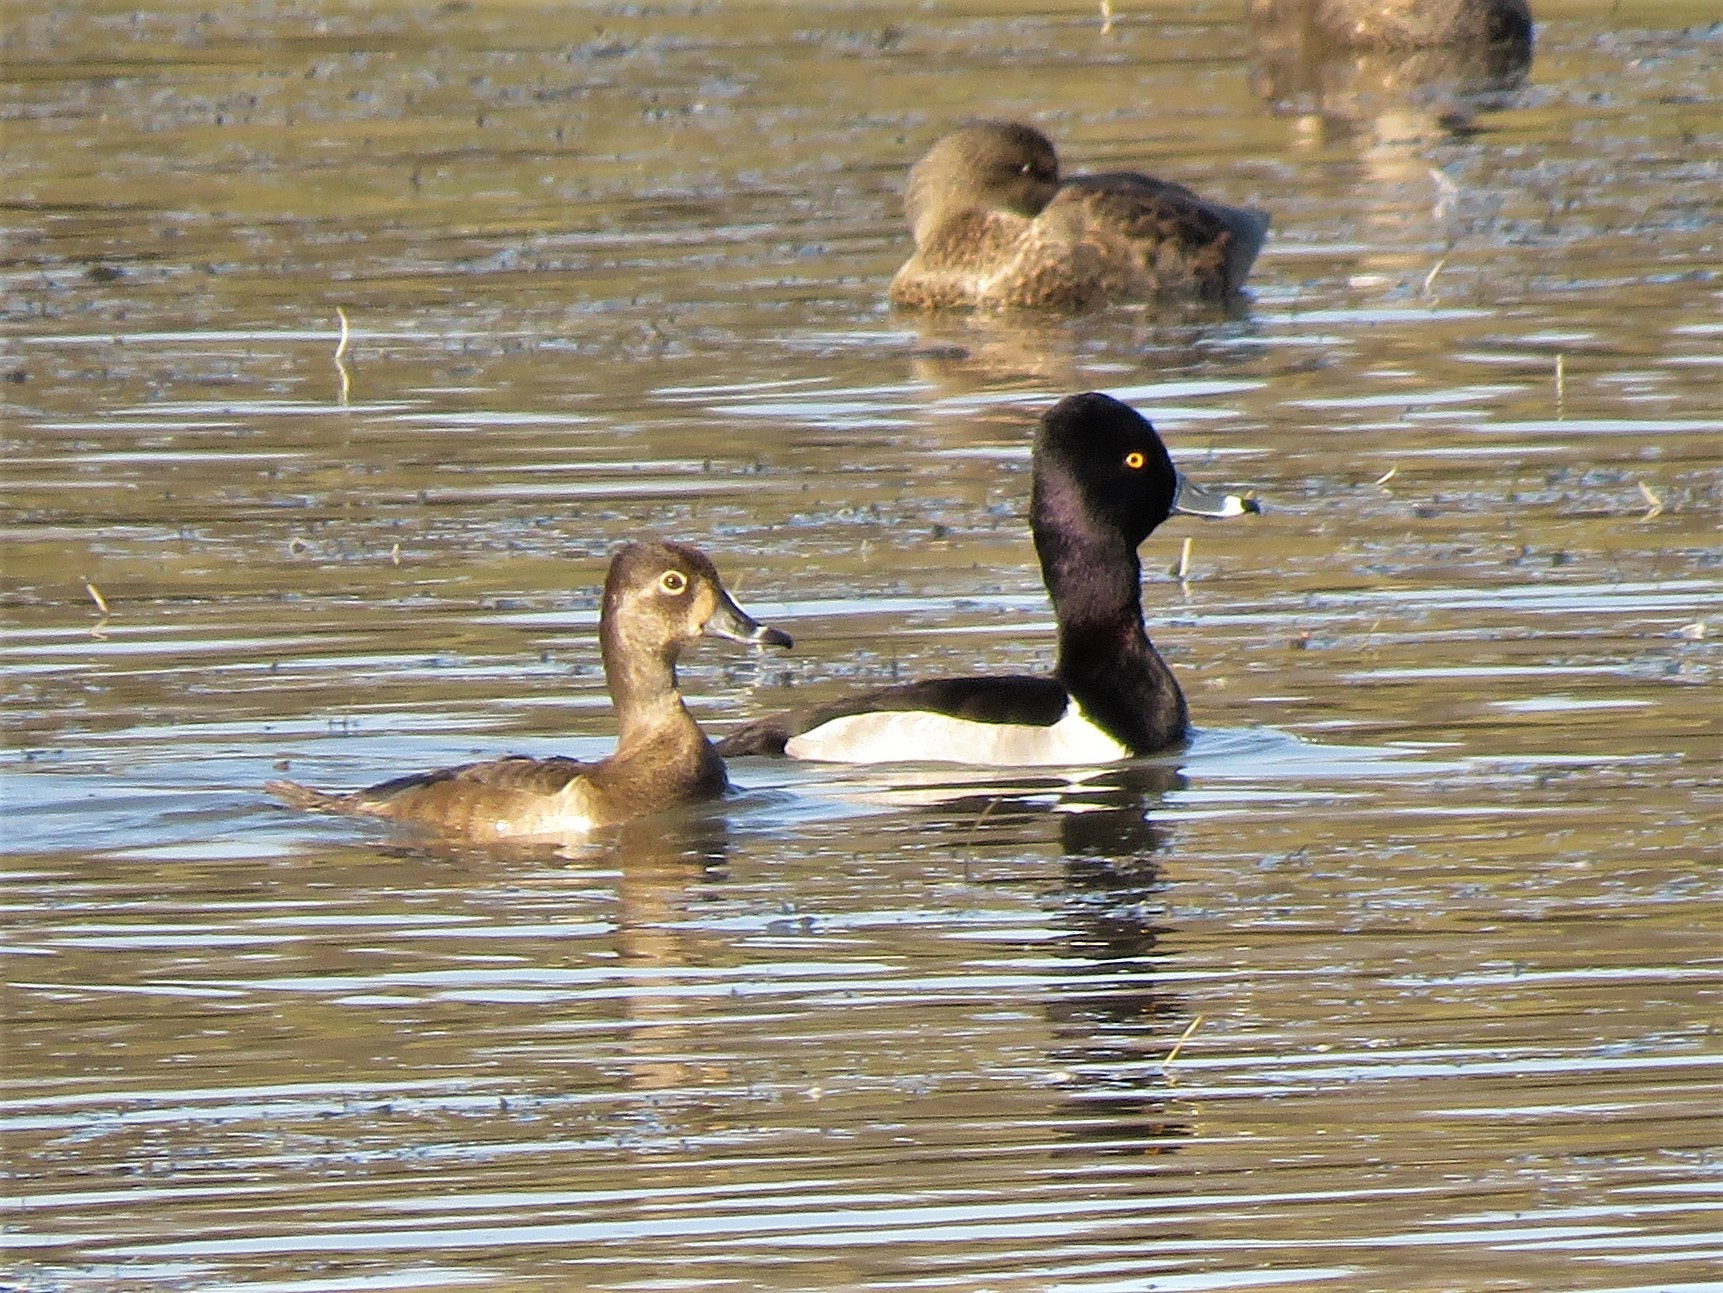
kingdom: Animalia
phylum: Chordata
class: Aves
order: Anseriformes
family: Anatidae
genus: Aythya
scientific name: Aythya collaris
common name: Ring-necked duck
